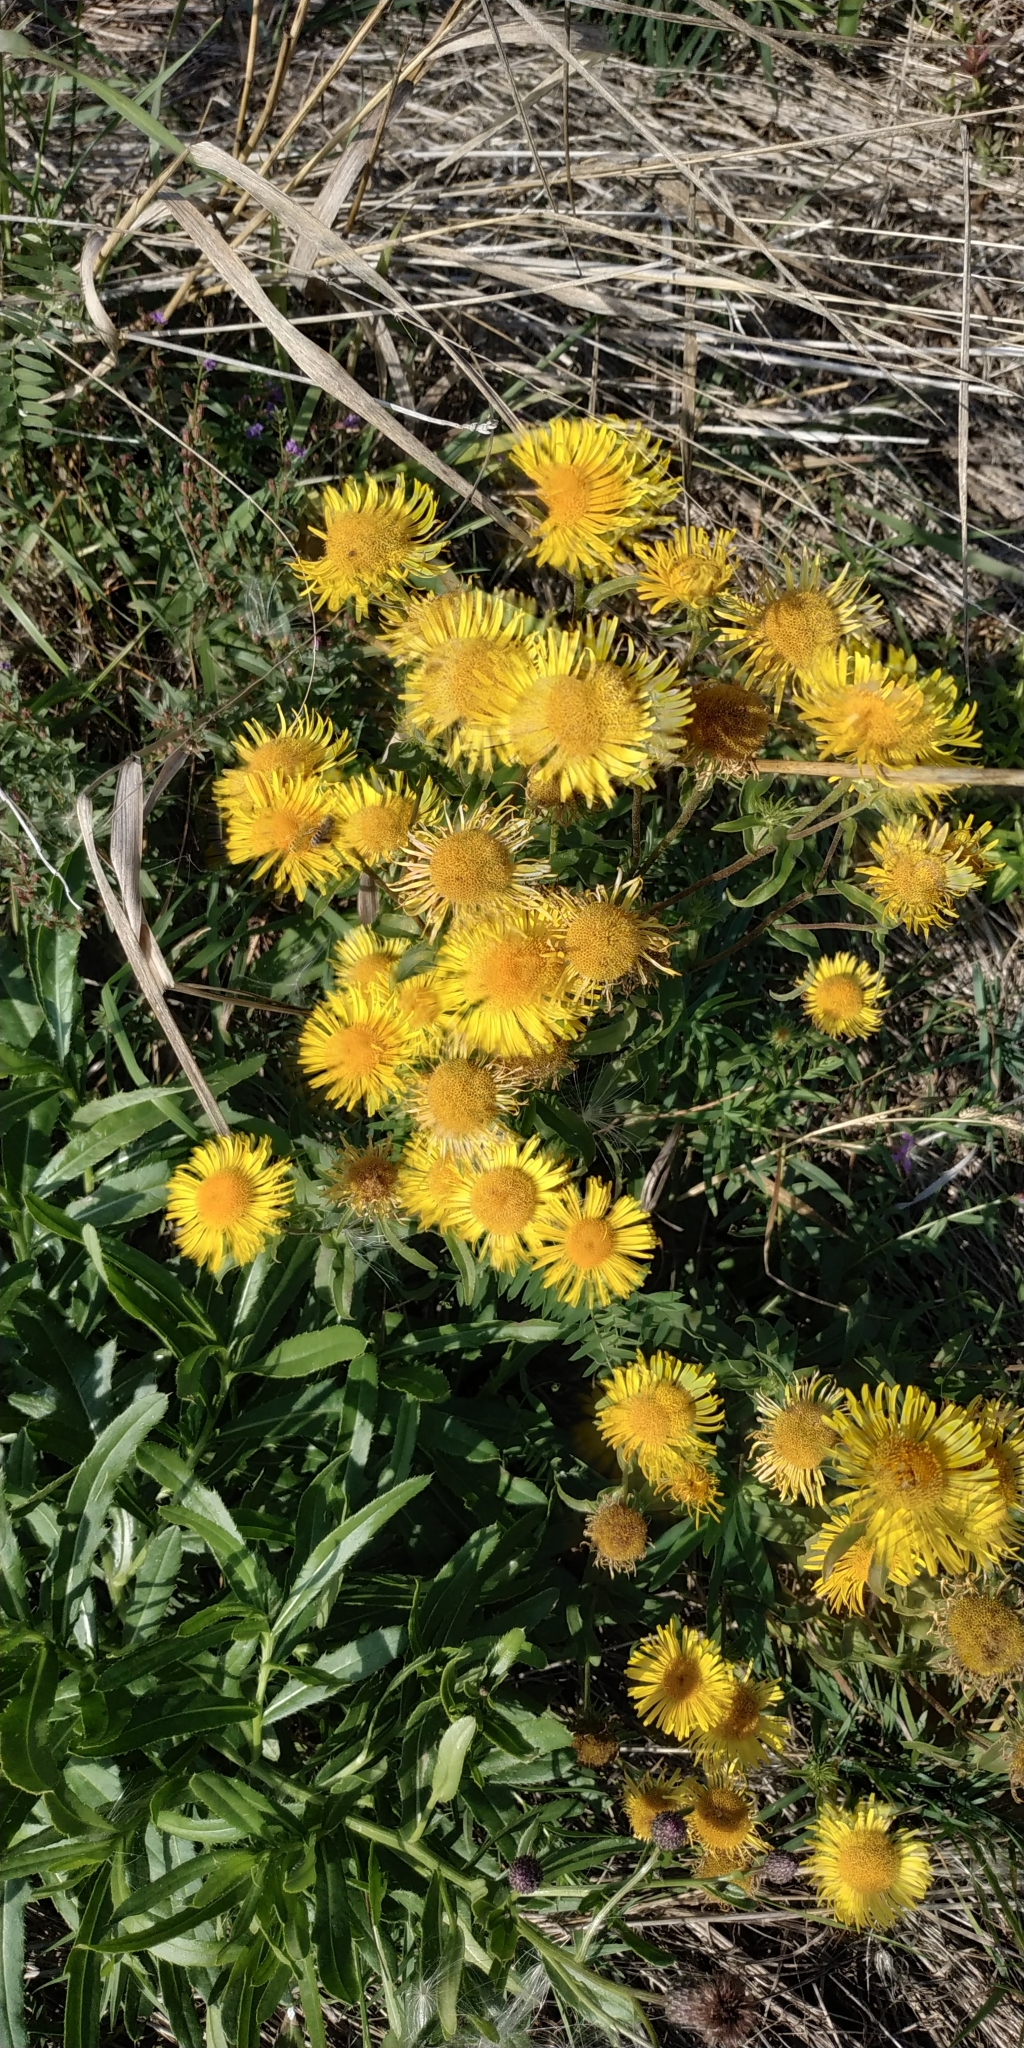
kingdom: Plantae
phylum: Tracheophyta
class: Magnoliopsida
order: Asterales
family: Asteraceae
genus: Pentanema
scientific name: Pentanema britannicum
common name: British elecampane
